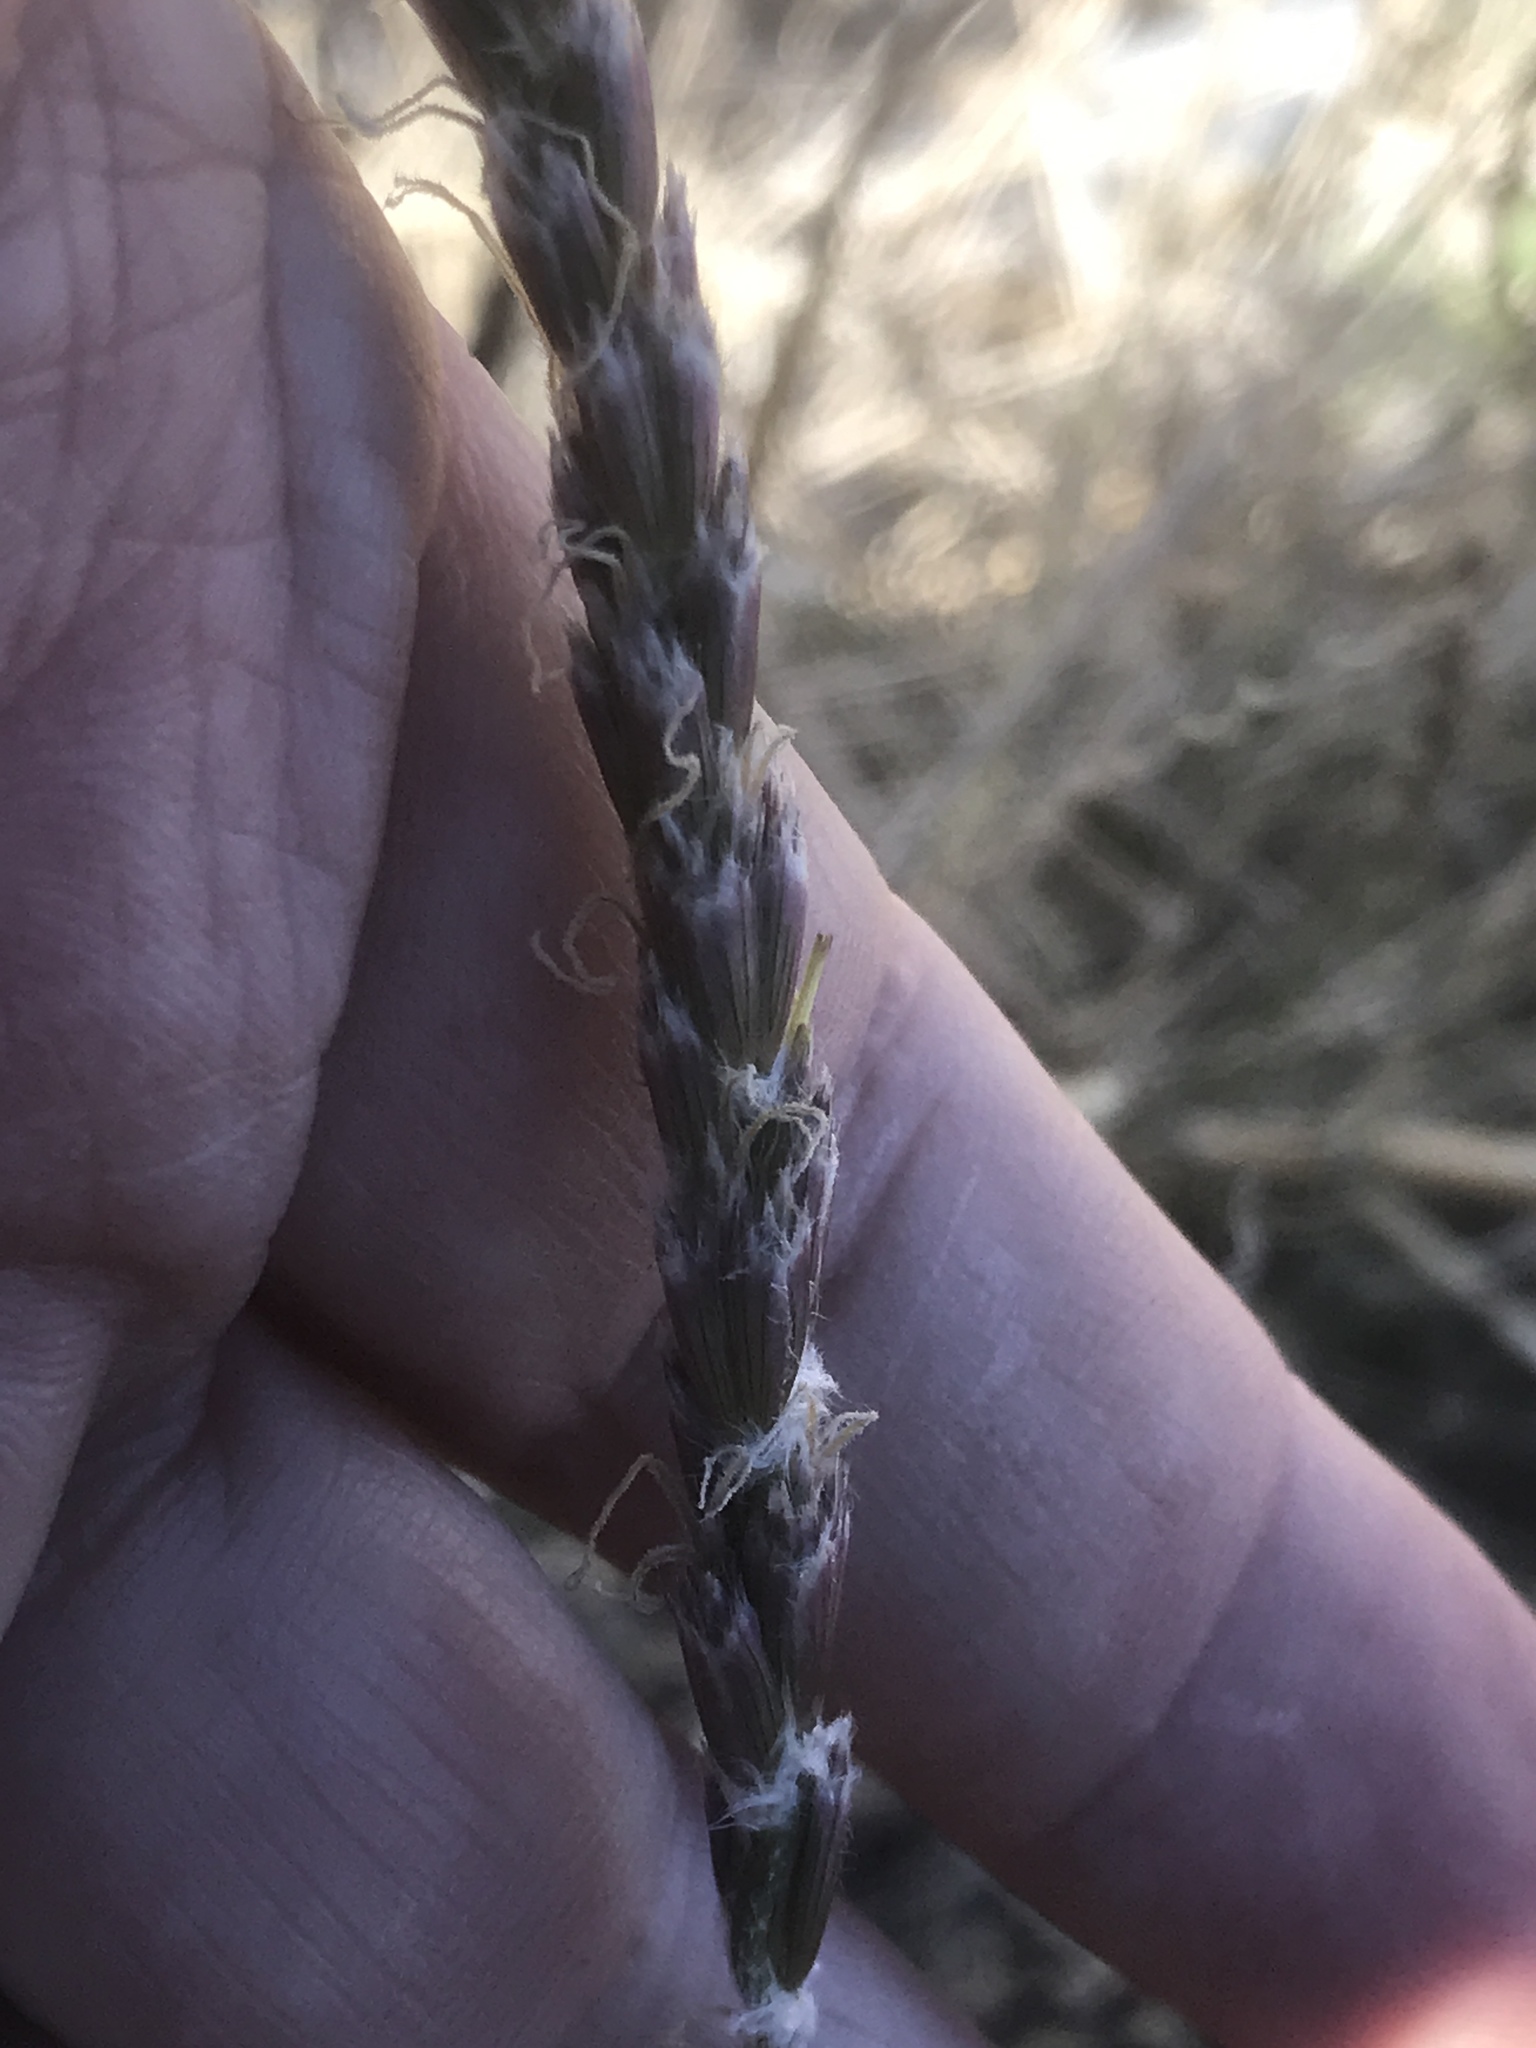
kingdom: Plantae
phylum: Tracheophyta
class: Liliopsida
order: Poales
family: Poaceae
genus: Hilaria
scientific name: Hilaria rigida
